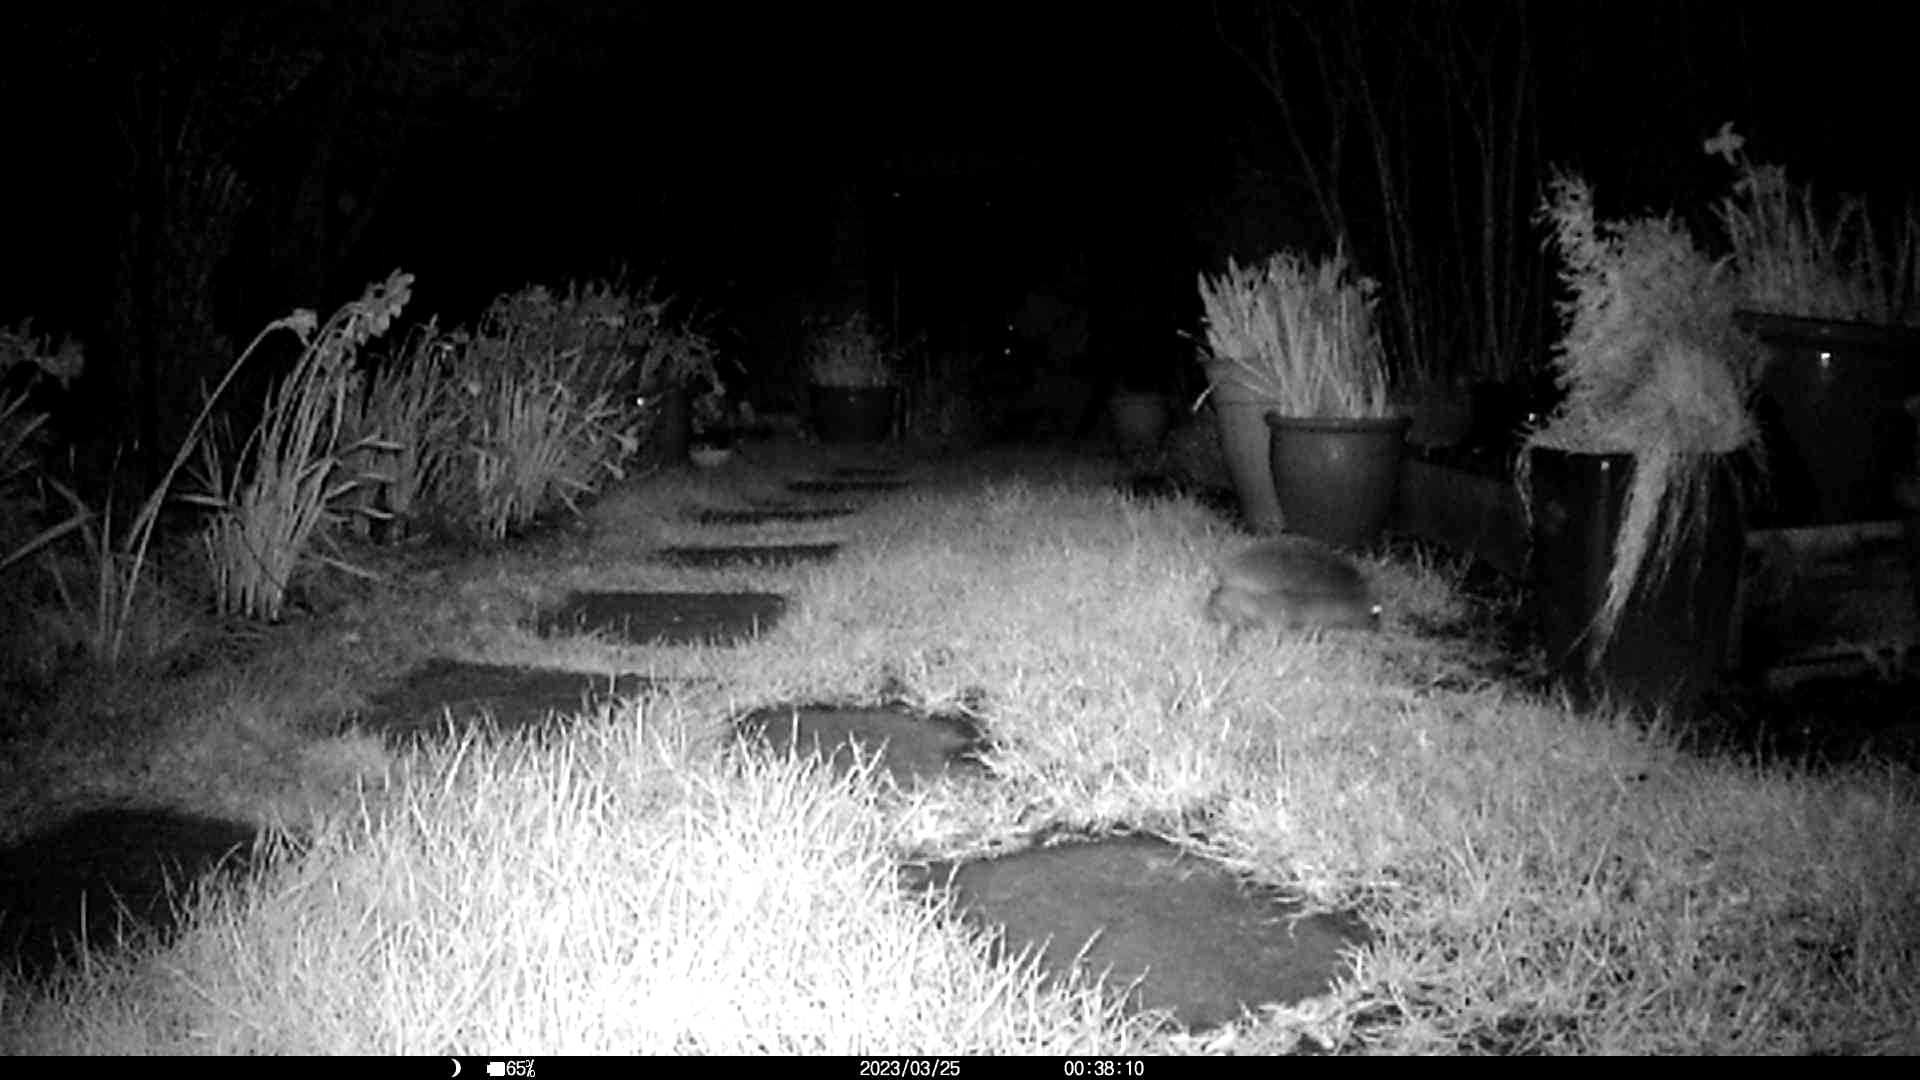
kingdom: Animalia
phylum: Chordata
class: Mammalia
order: Erinaceomorpha
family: Erinaceidae
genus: Erinaceus
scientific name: Erinaceus europaeus
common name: West european hedgehog
